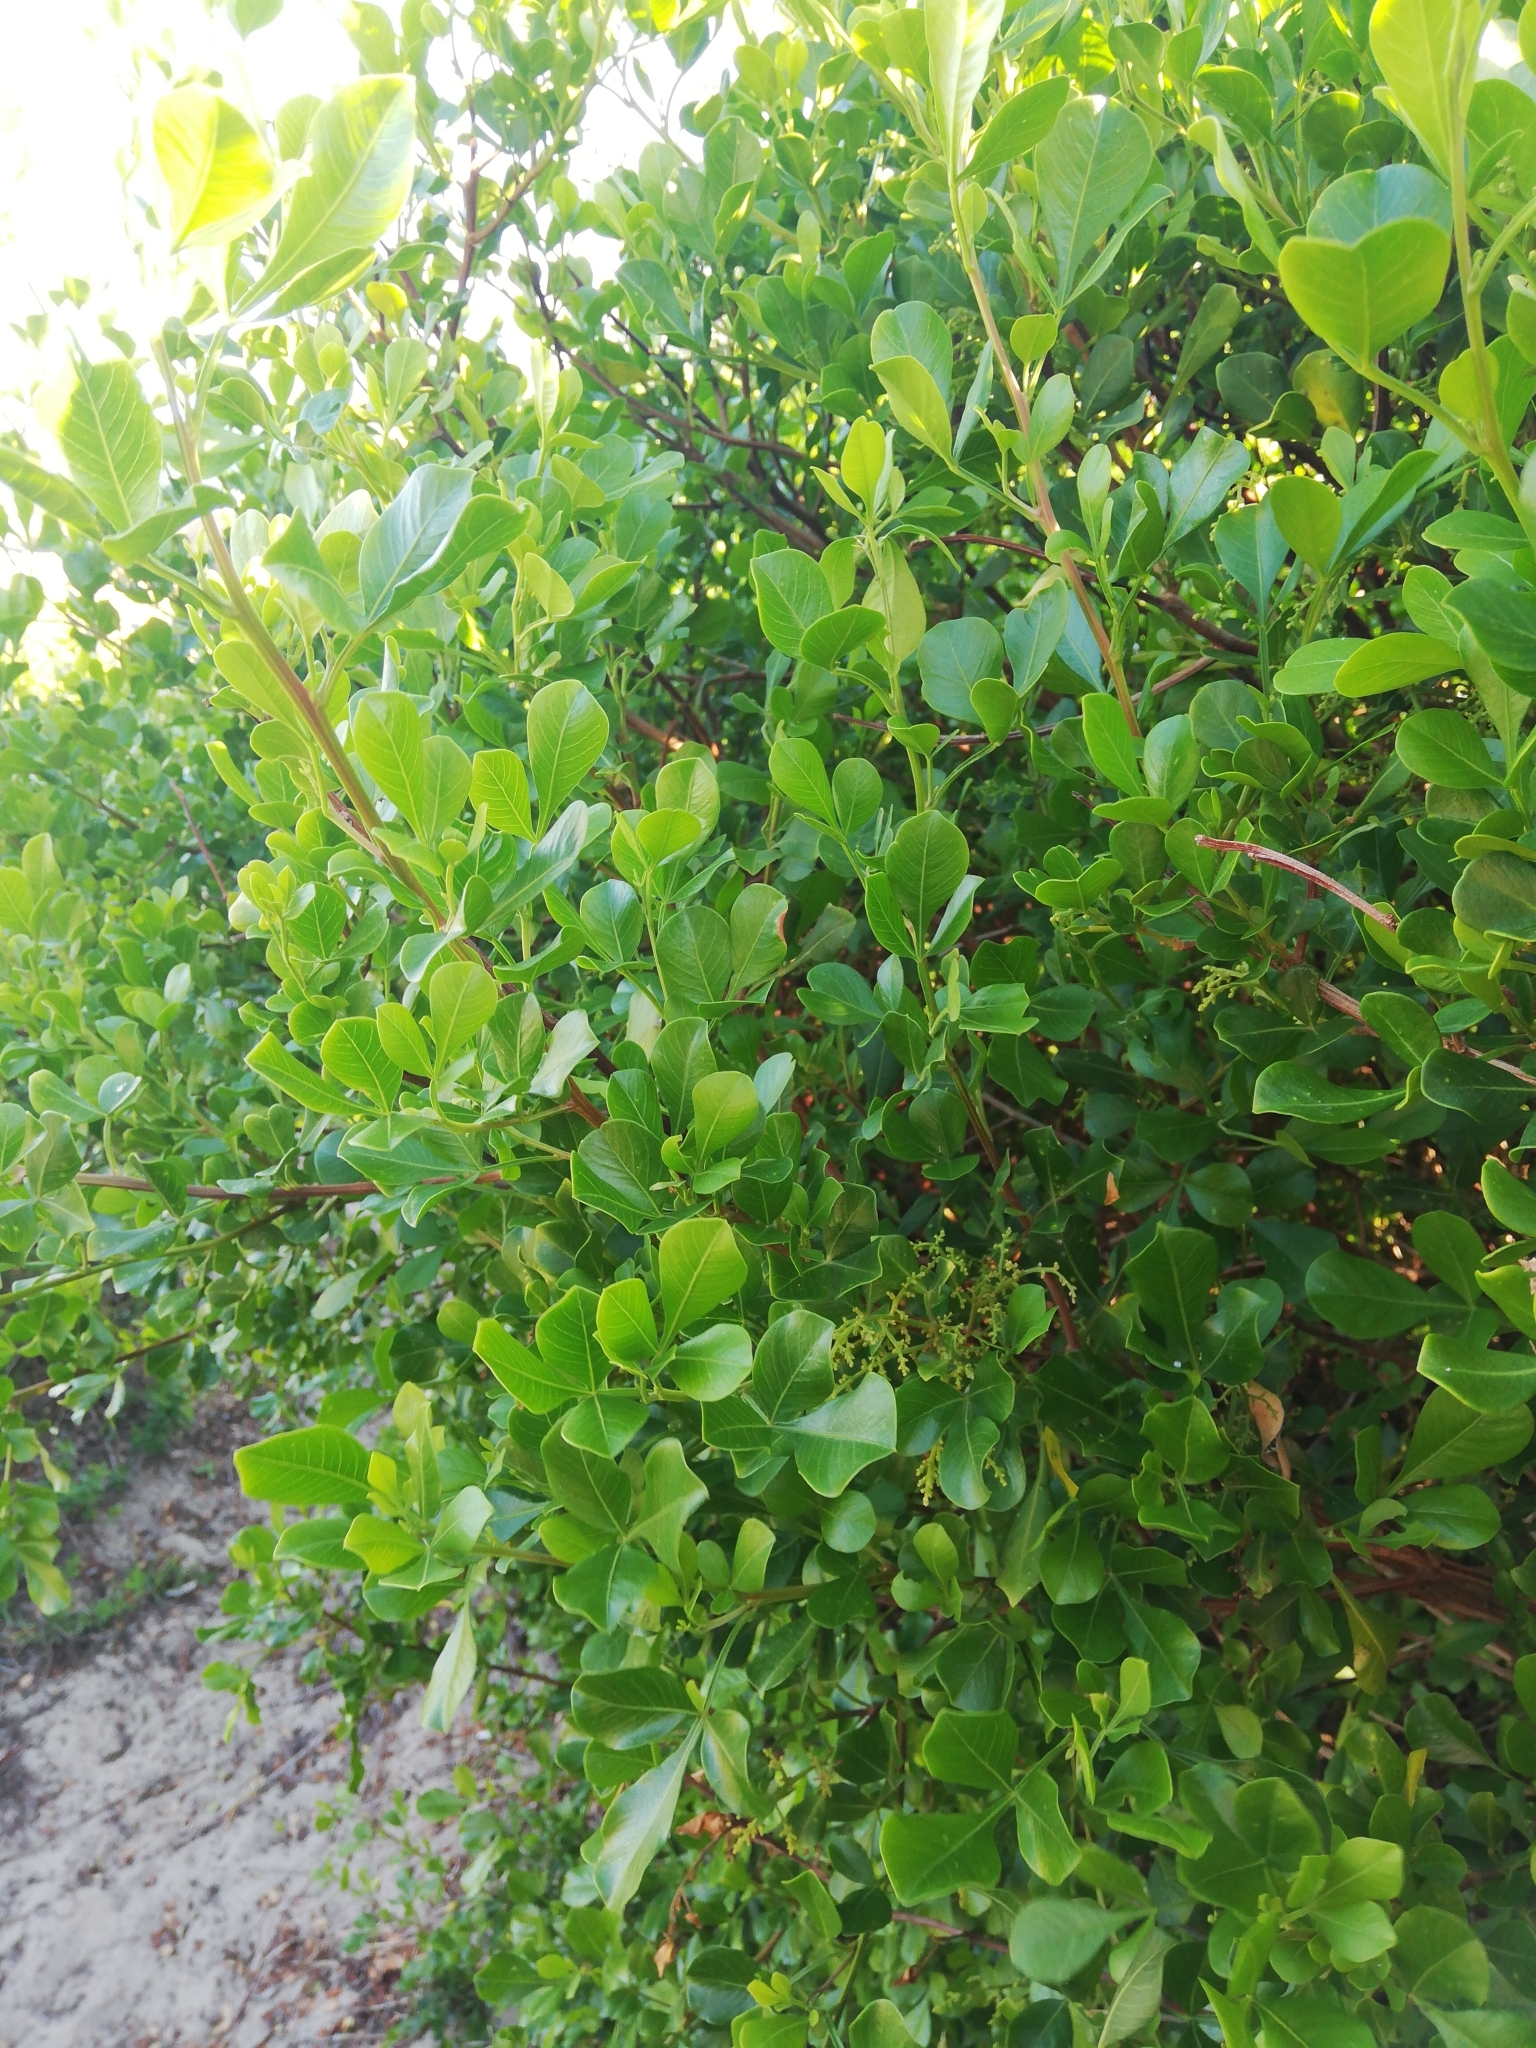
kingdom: Plantae
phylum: Tracheophyta
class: Magnoliopsida
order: Sapindales
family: Anacardiaceae
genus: Searsia
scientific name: Searsia lucida
